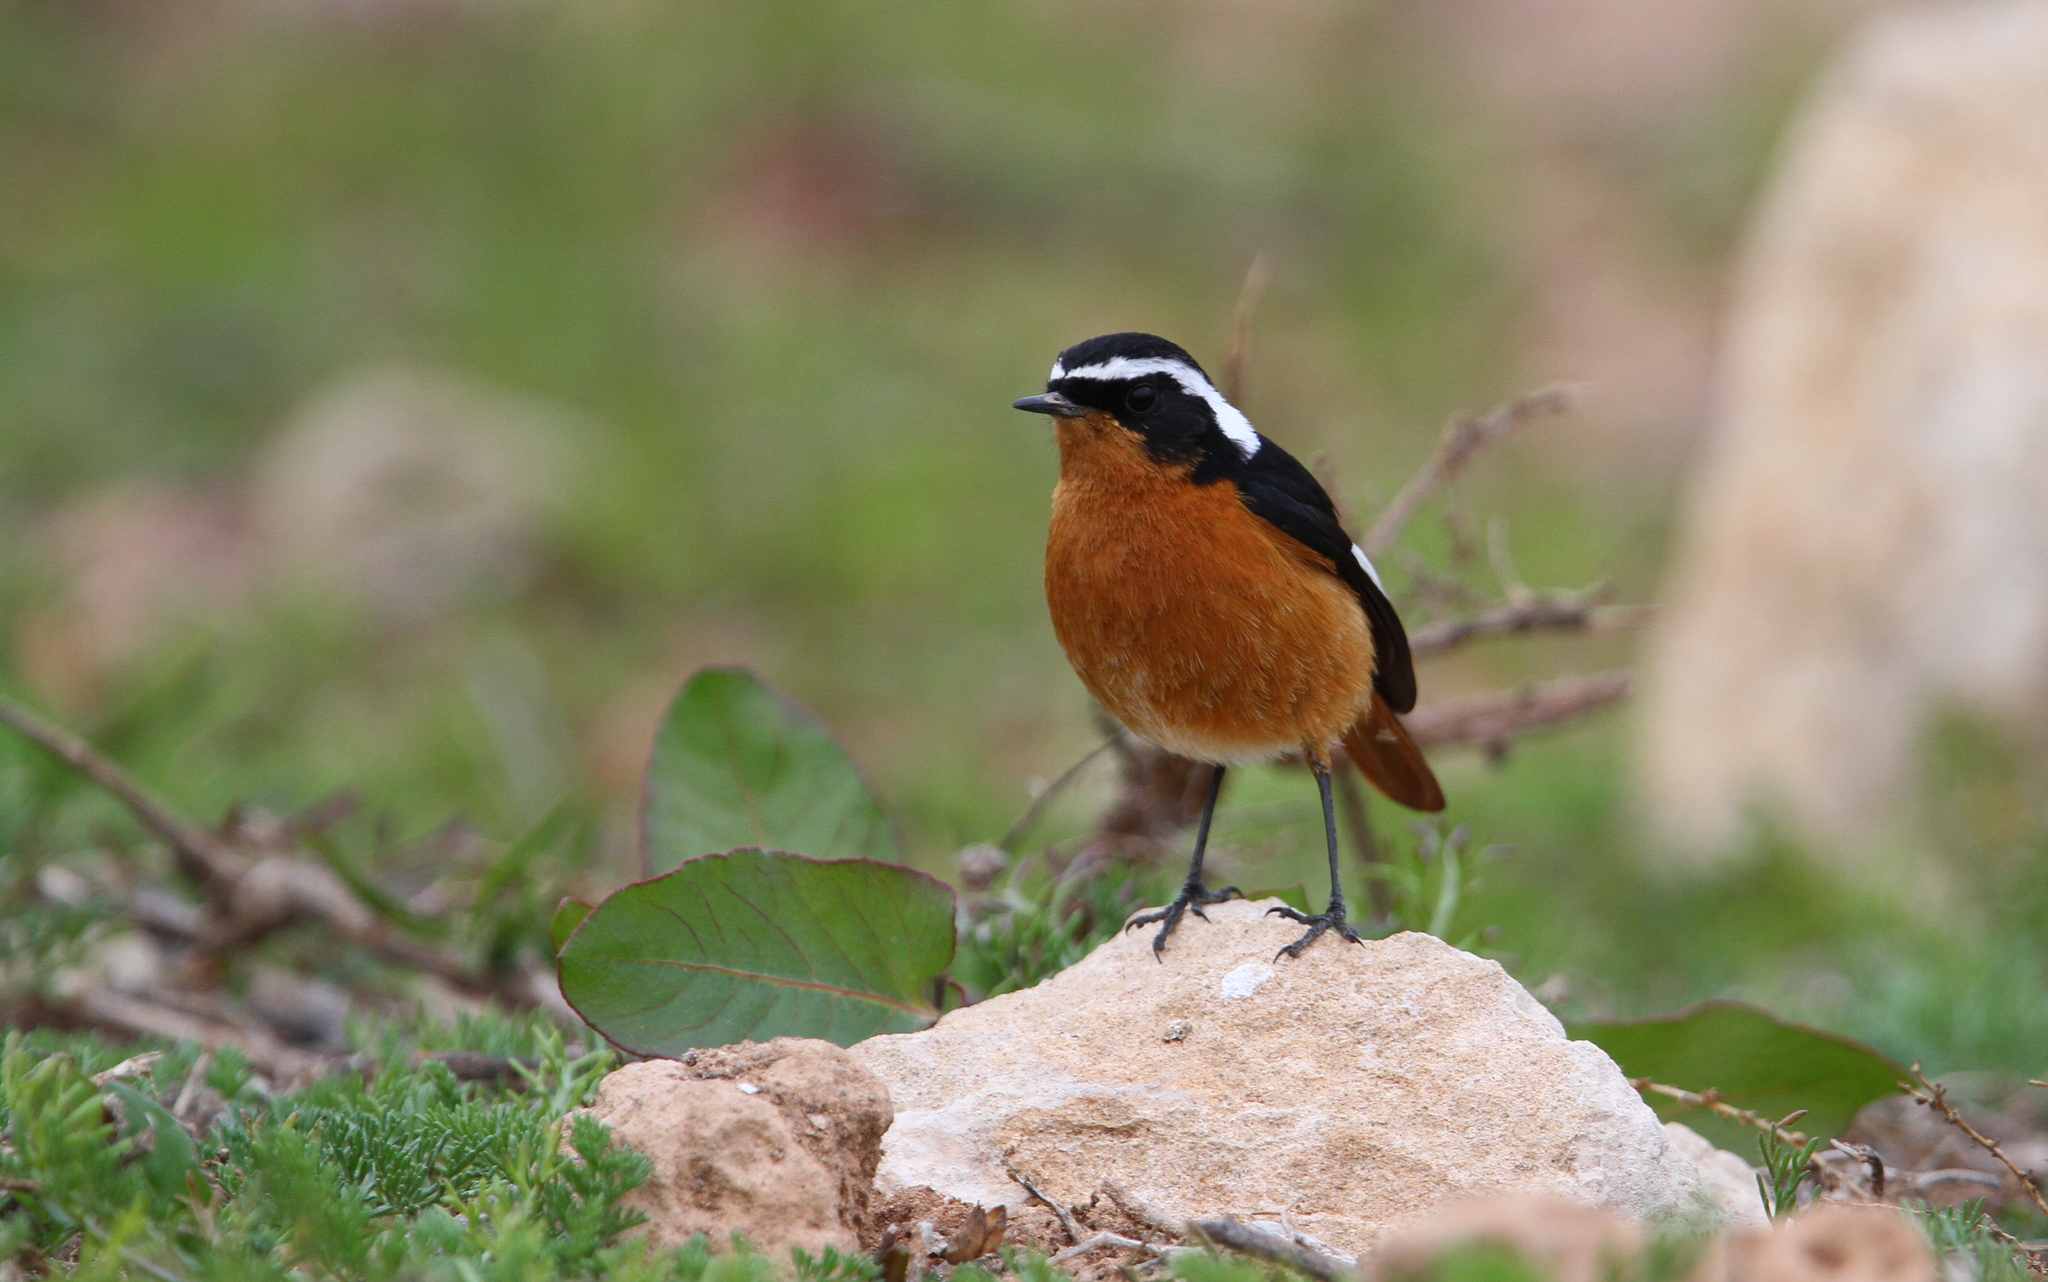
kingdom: Animalia
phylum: Chordata
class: Aves
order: Passeriformes
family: Muscicapidae
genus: Phoenicurus
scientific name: Phoenicurus moussieri
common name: Moussier's redstart
